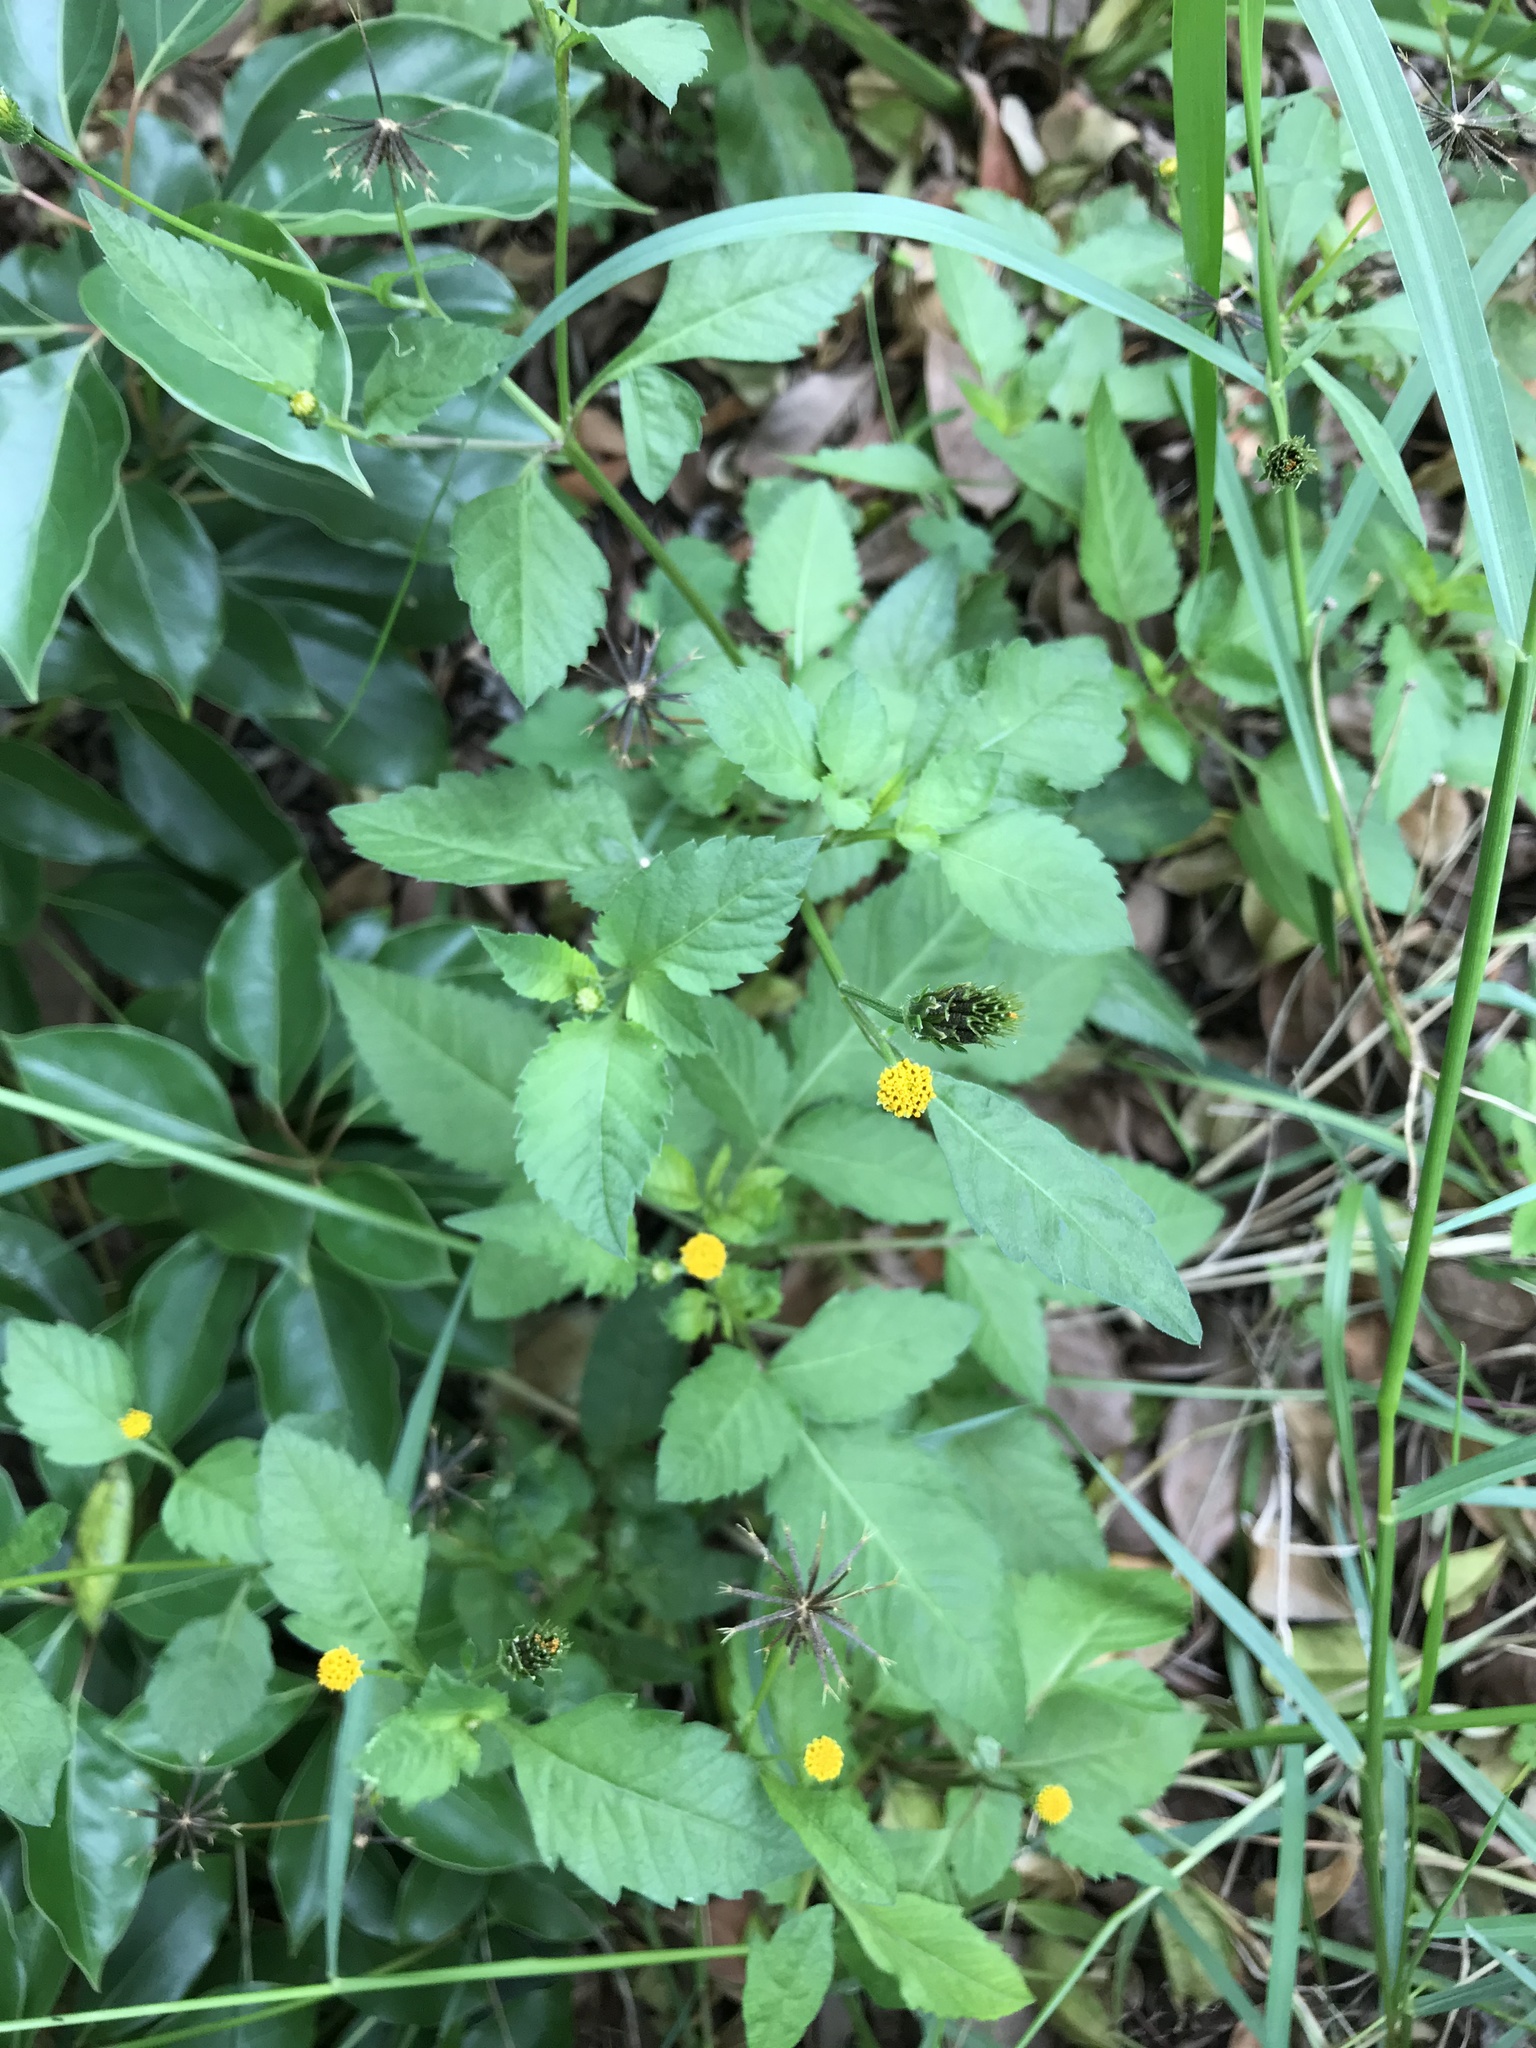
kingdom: Plantae
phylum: Tracheophyta
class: Magnoliopsida
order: Asterales
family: Asteraceae
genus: Bidens
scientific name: Bidens pilosa
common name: Black-jack
